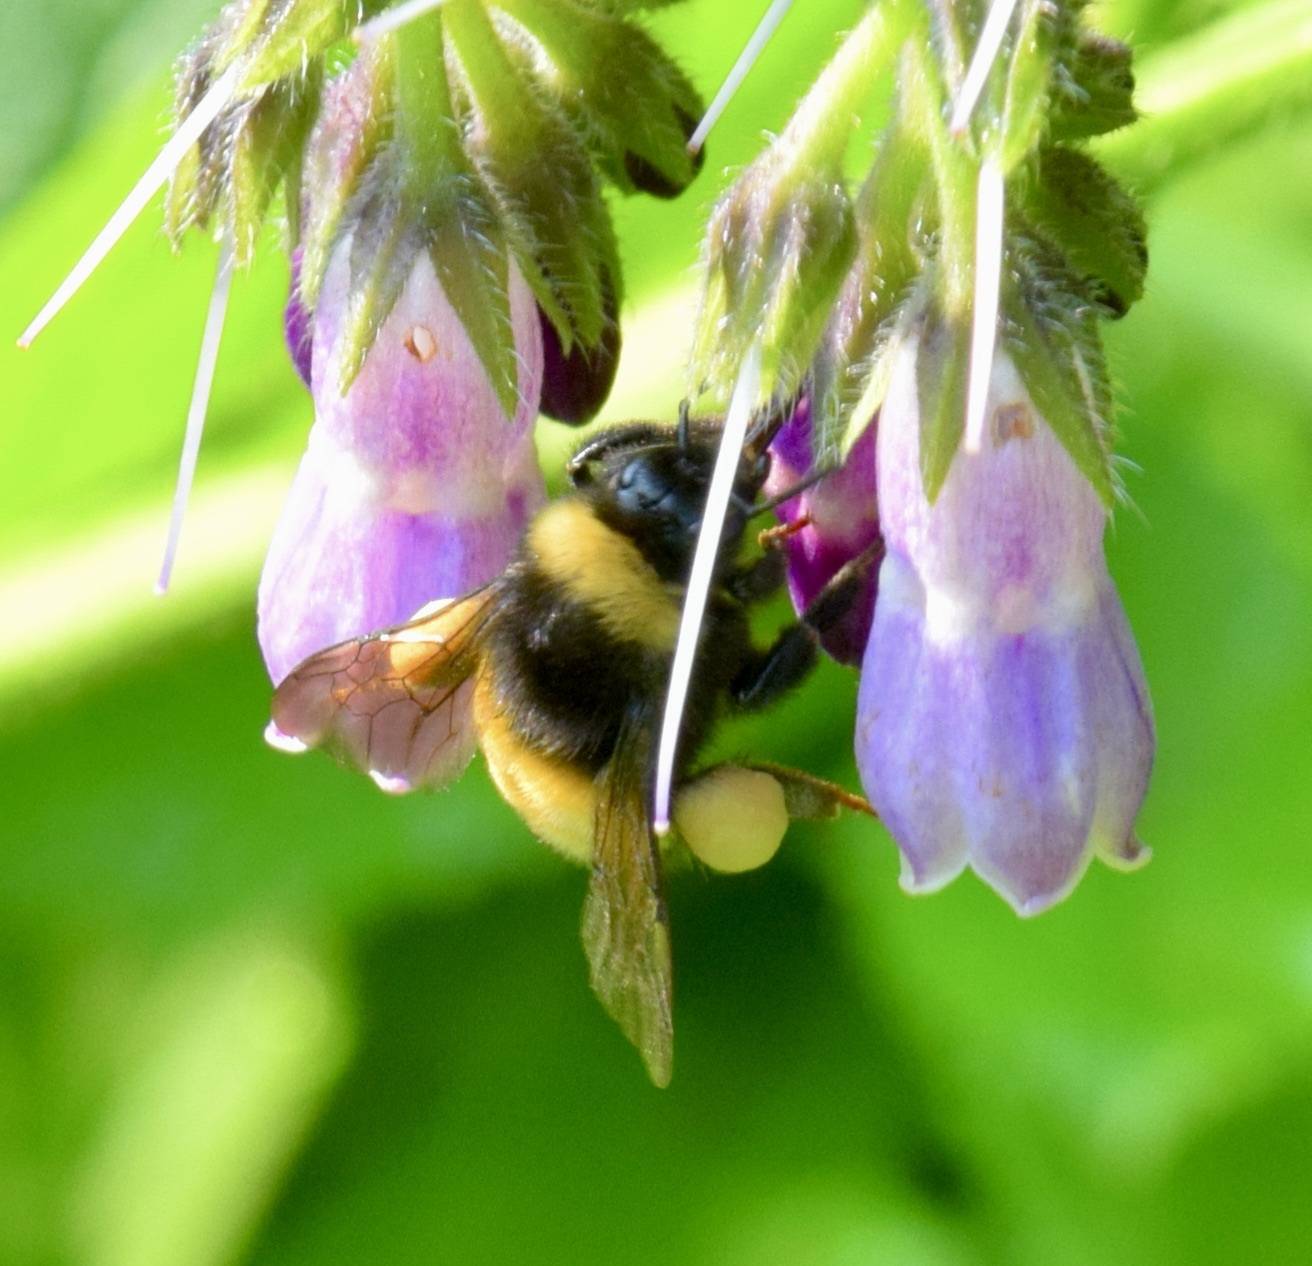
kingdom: Animalia
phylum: Arthropoda
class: Insecta
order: Hymenoptera
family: Apidae
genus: Bombus
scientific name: Bombus terricola
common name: Yellow-banded bumble bee
